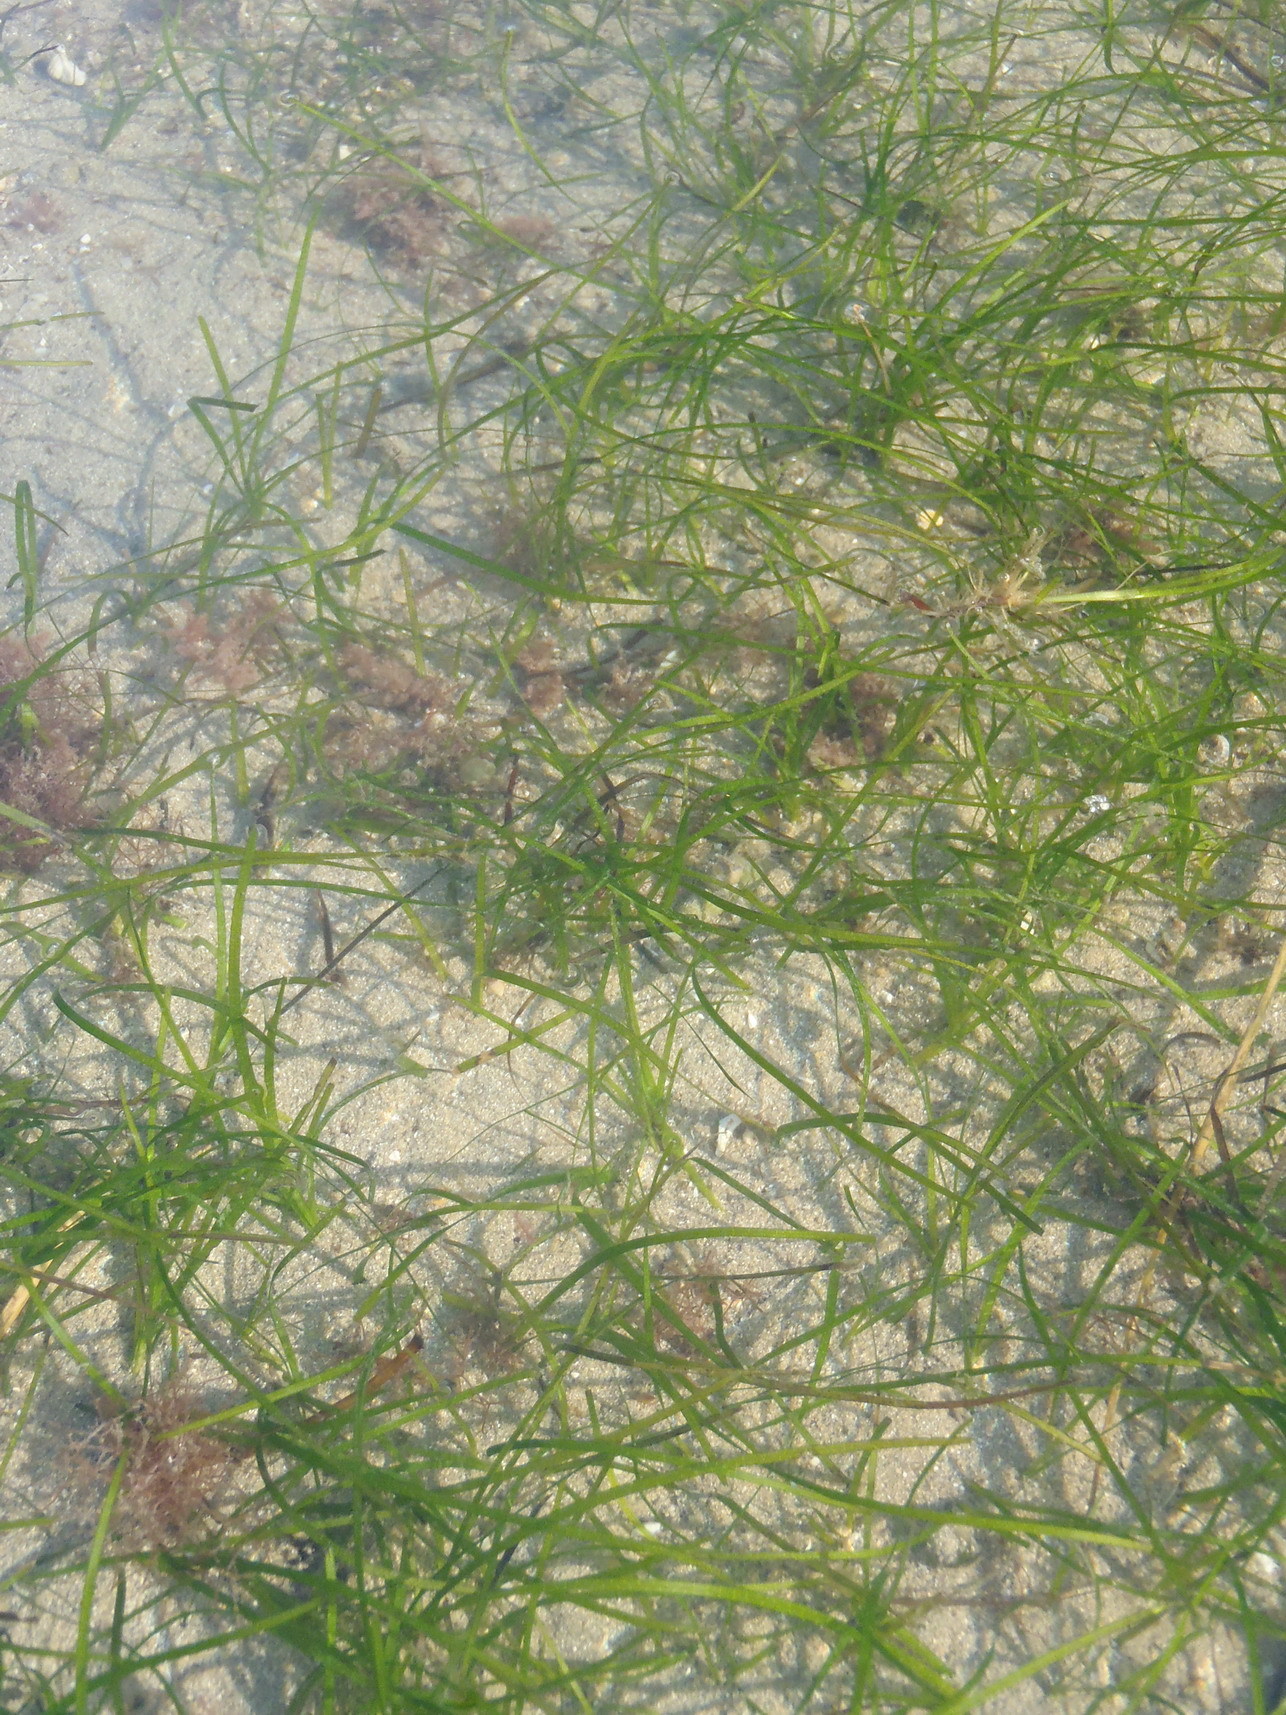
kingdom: Plantae
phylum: Tracheophyta
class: Liliopsida
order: Alismatales
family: Zosteraceae
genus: Zostera
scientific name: Zostera capensis
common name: Species code: zp
